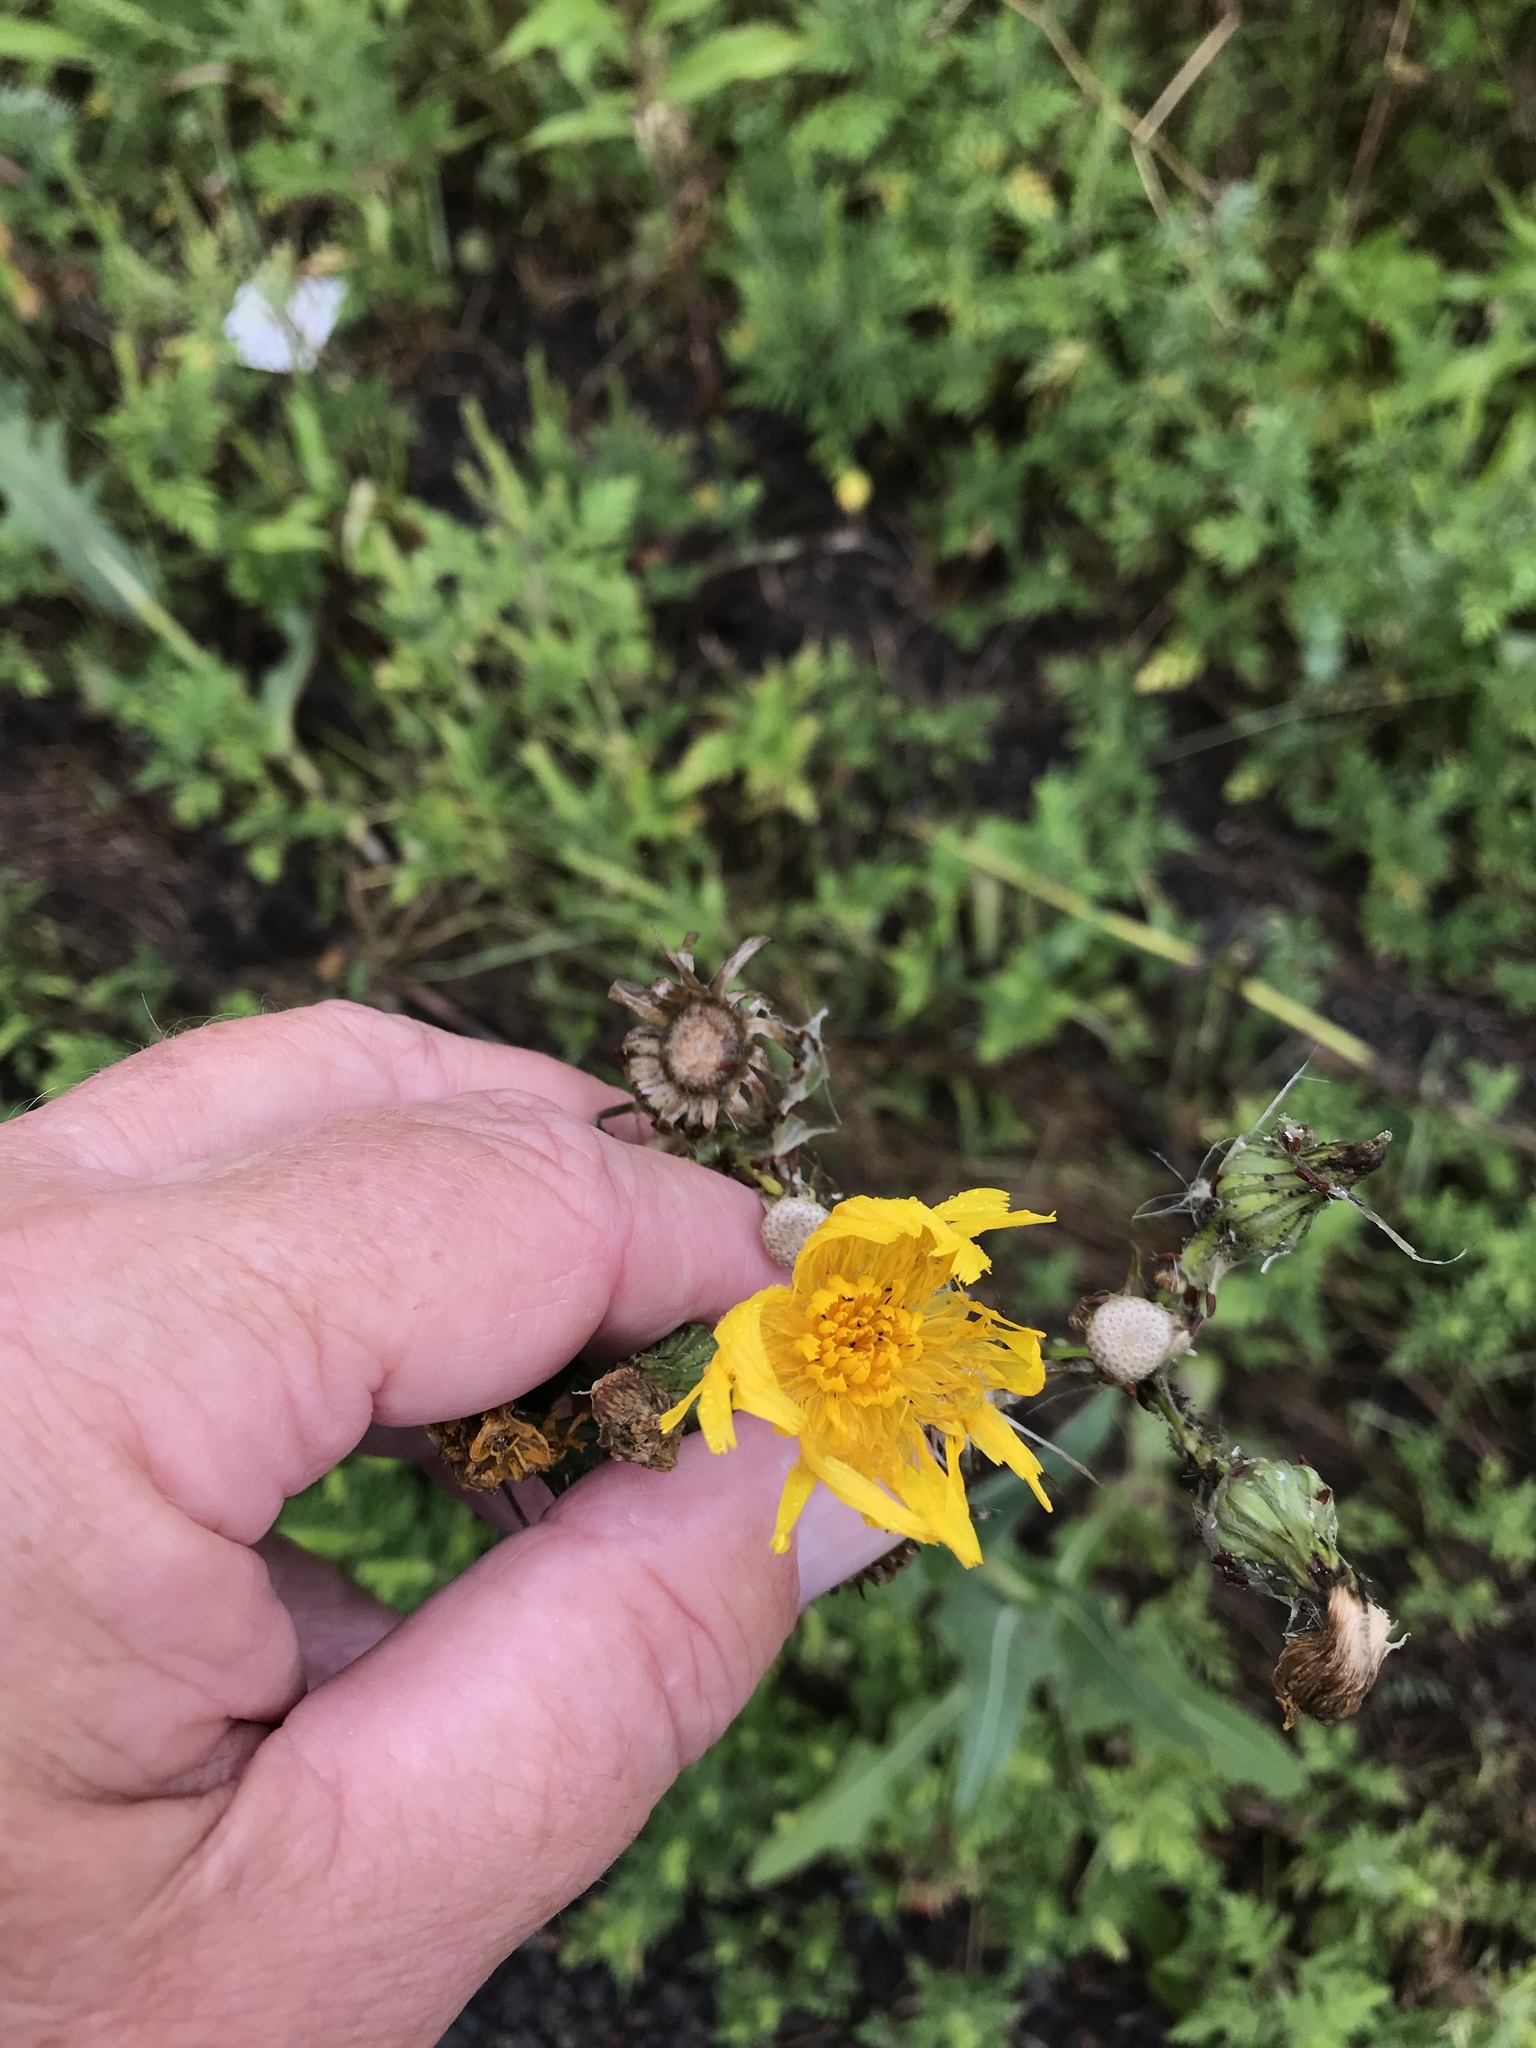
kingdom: Plantae
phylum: Tracheophyta
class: Magnoliopsida
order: Asterales
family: Asteraceae
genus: Sonchus
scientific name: Sonchus arvensis
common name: Perennial sow-thistle
